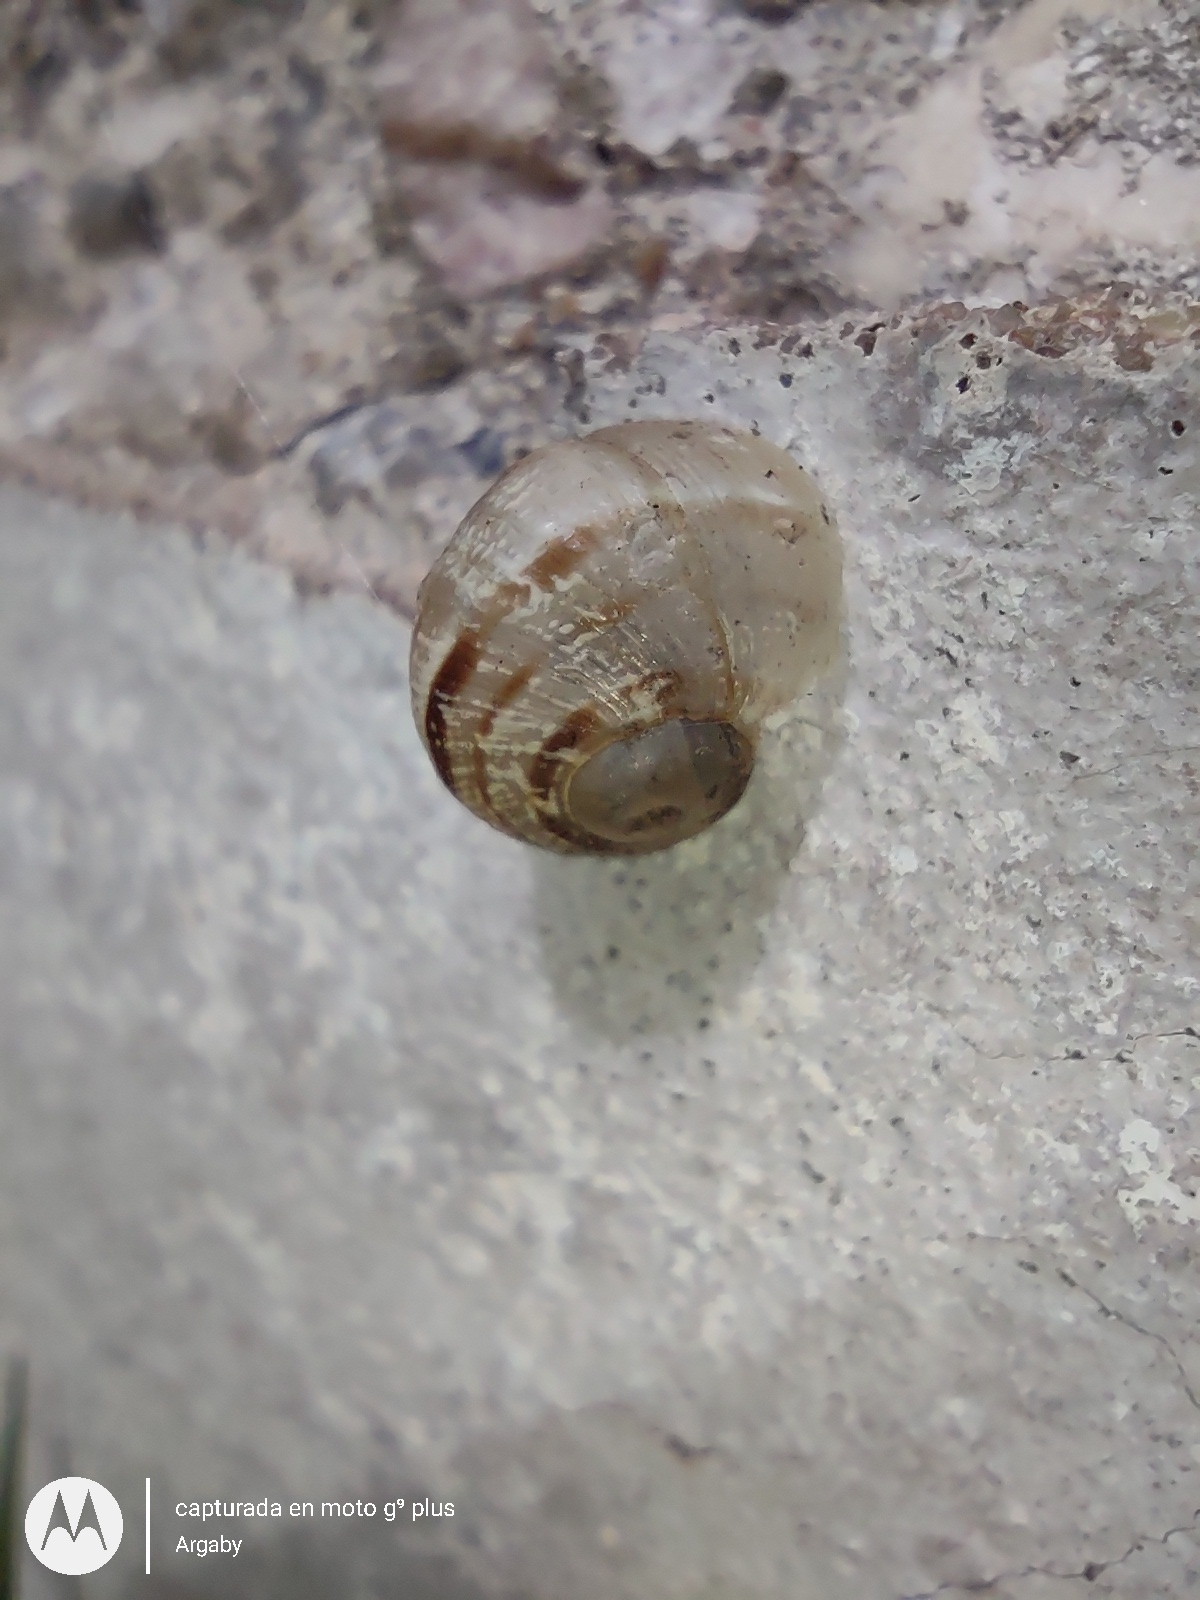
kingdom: Animalia
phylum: Mollusca
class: Gastropoda
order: Stylommatophora
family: Helicidae
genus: Cornu
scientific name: Cornu aspersum
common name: Brown garden snail
